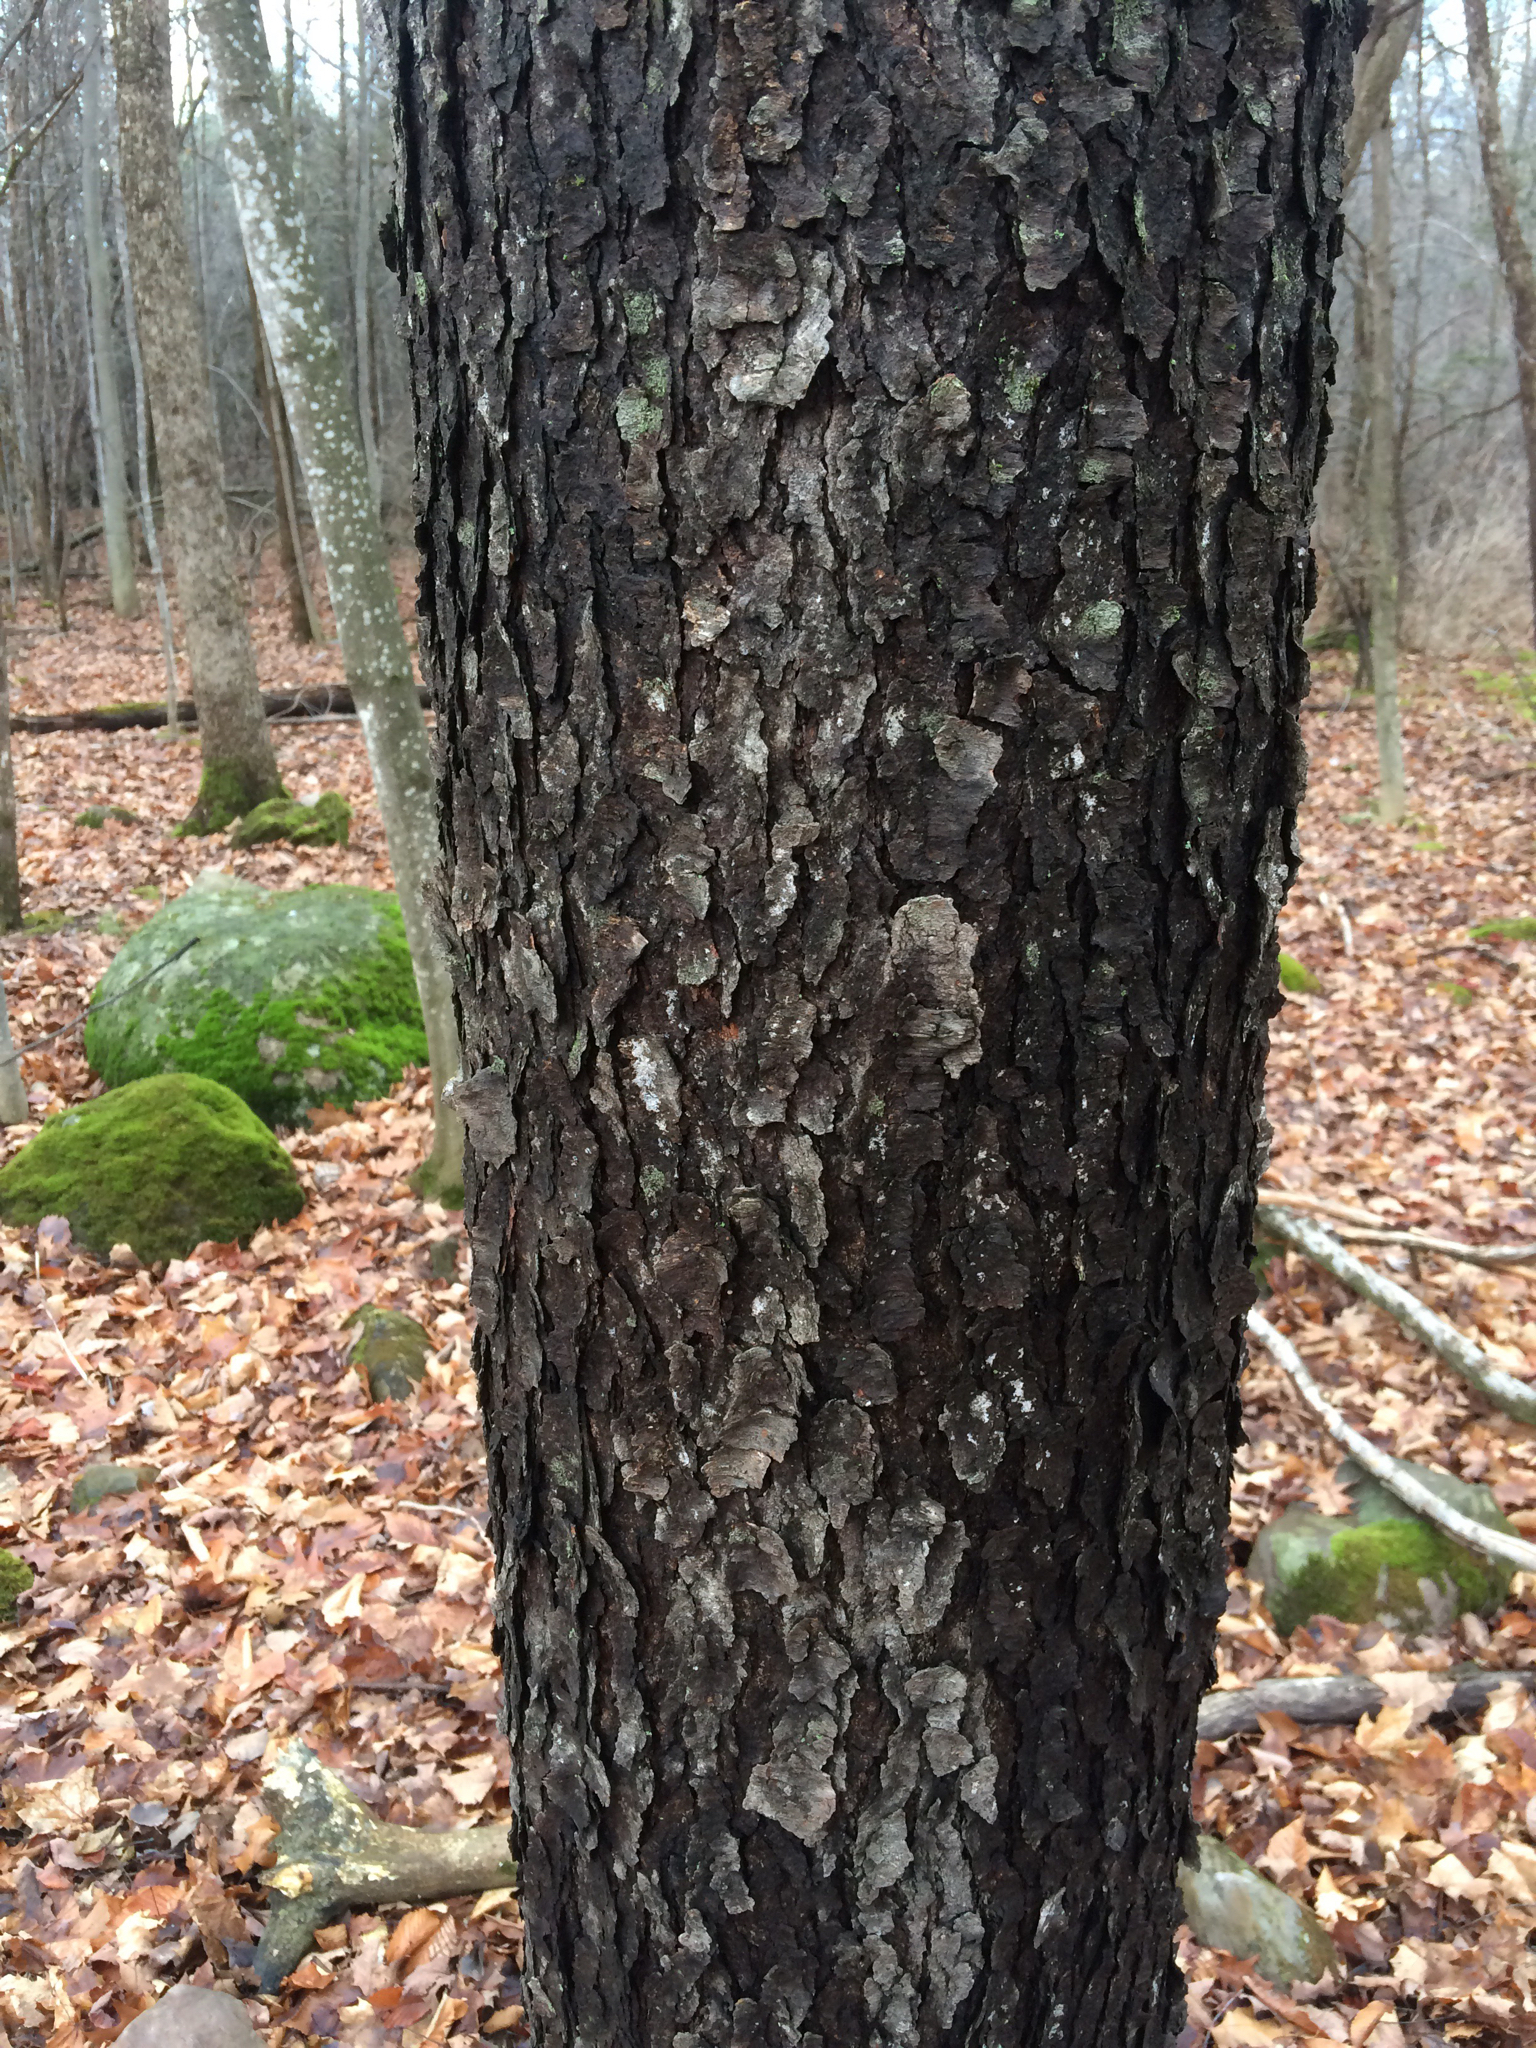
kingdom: Plantae
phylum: Tracheophyta
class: Magnoliopsida
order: Rosales
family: Rosaceae
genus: Prunus
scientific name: Prunus serotina
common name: Black cherry
